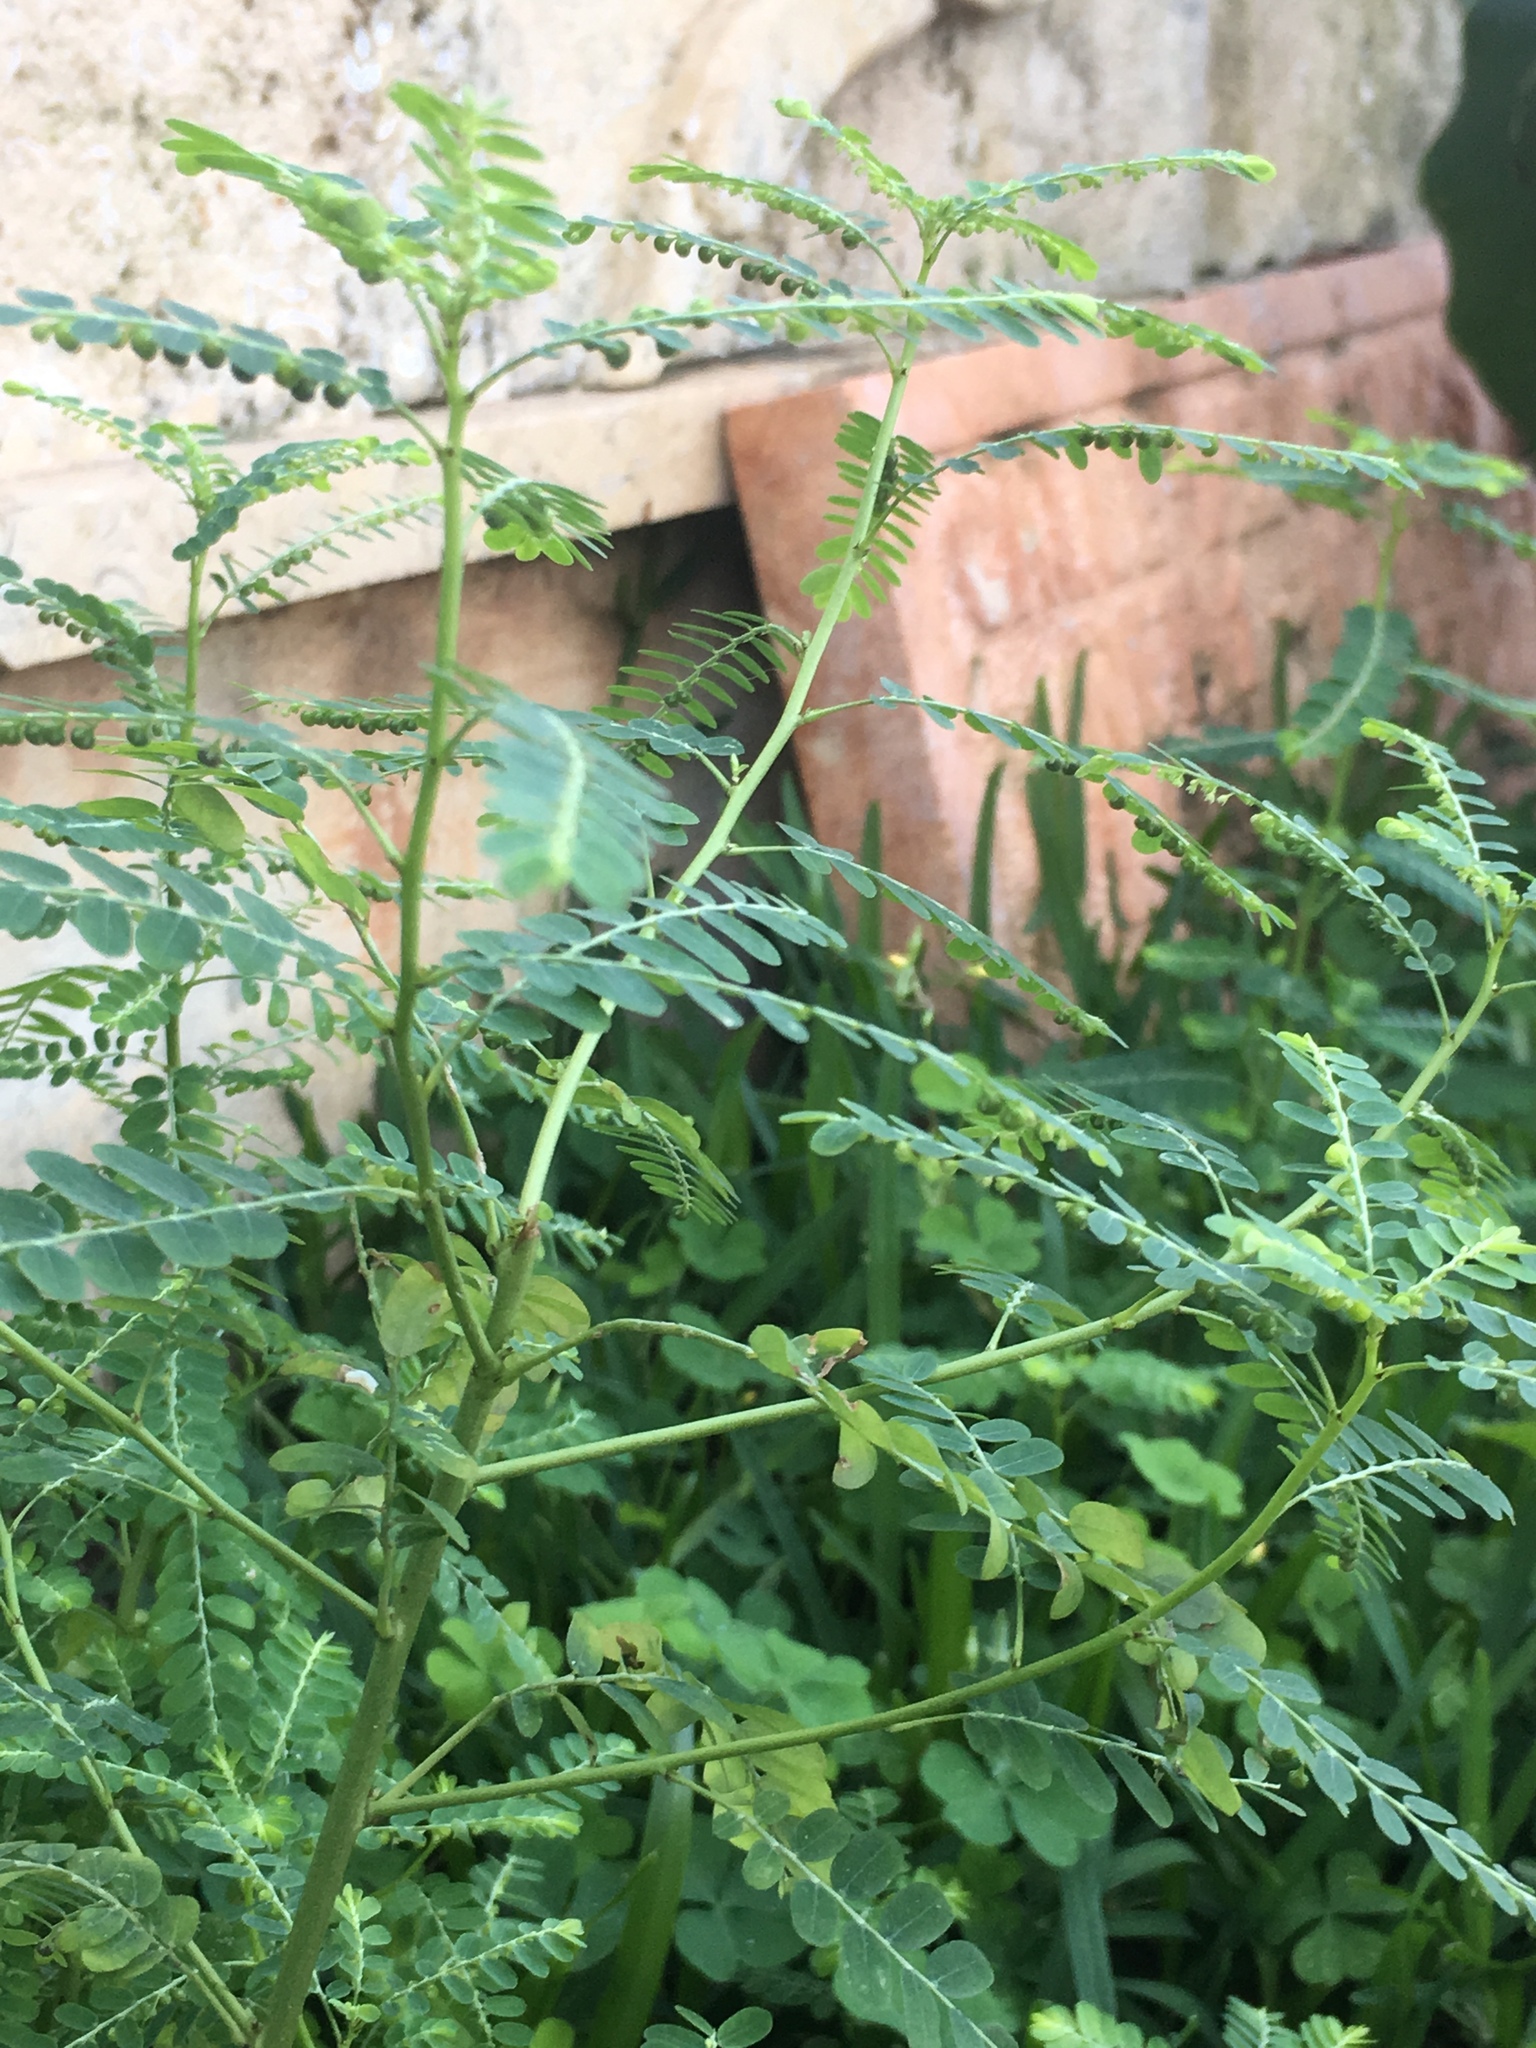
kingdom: Plantae
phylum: Tracheophyta
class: Magnoliopsida
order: Malpighiales
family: Phyllanthaceae
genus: Phyllanthus
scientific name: Phyllanthus amarus
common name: Carry me seed
